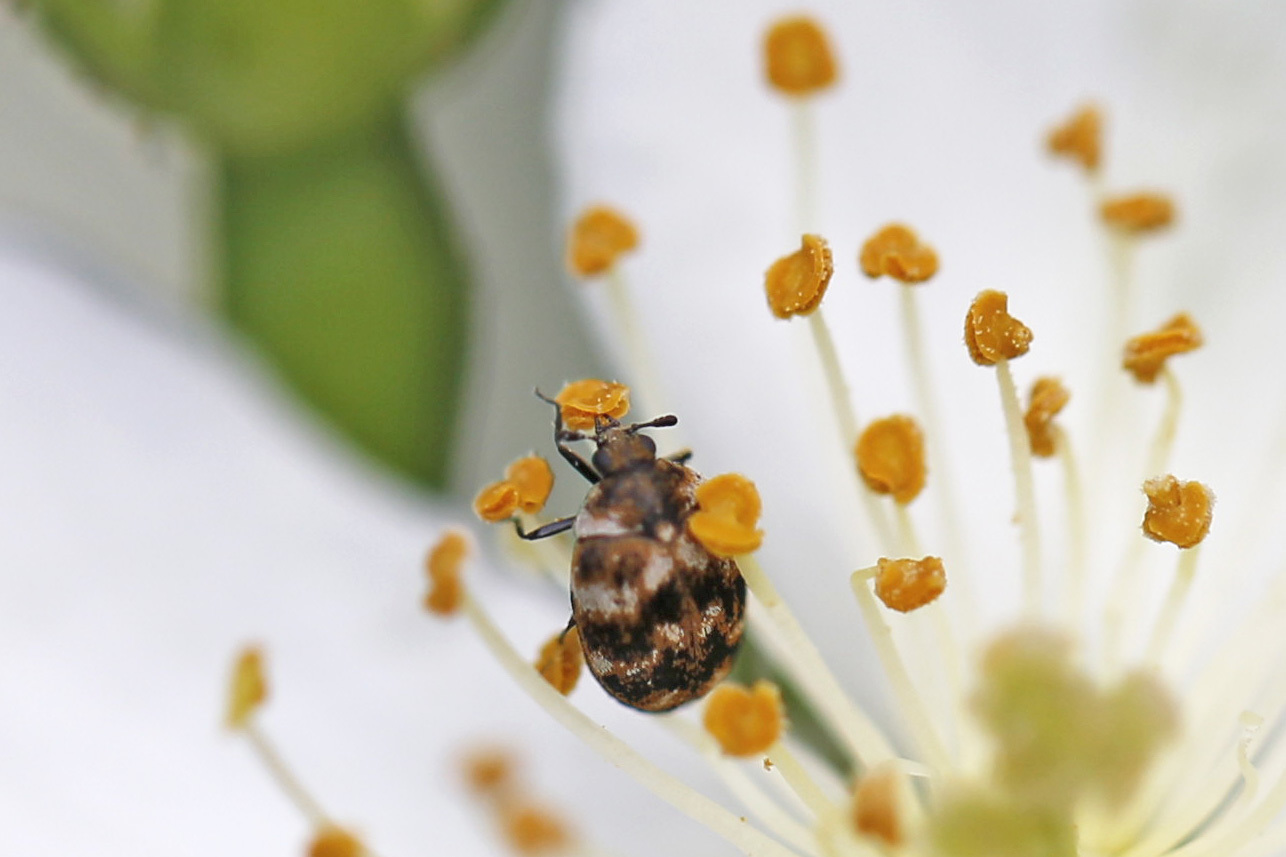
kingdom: Animalia
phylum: Arthropoda
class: Insecta
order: Coleoptera
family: Dermestidae
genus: Anthrenus
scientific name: Anthrenus verbasci
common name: Varied carpet beetle
